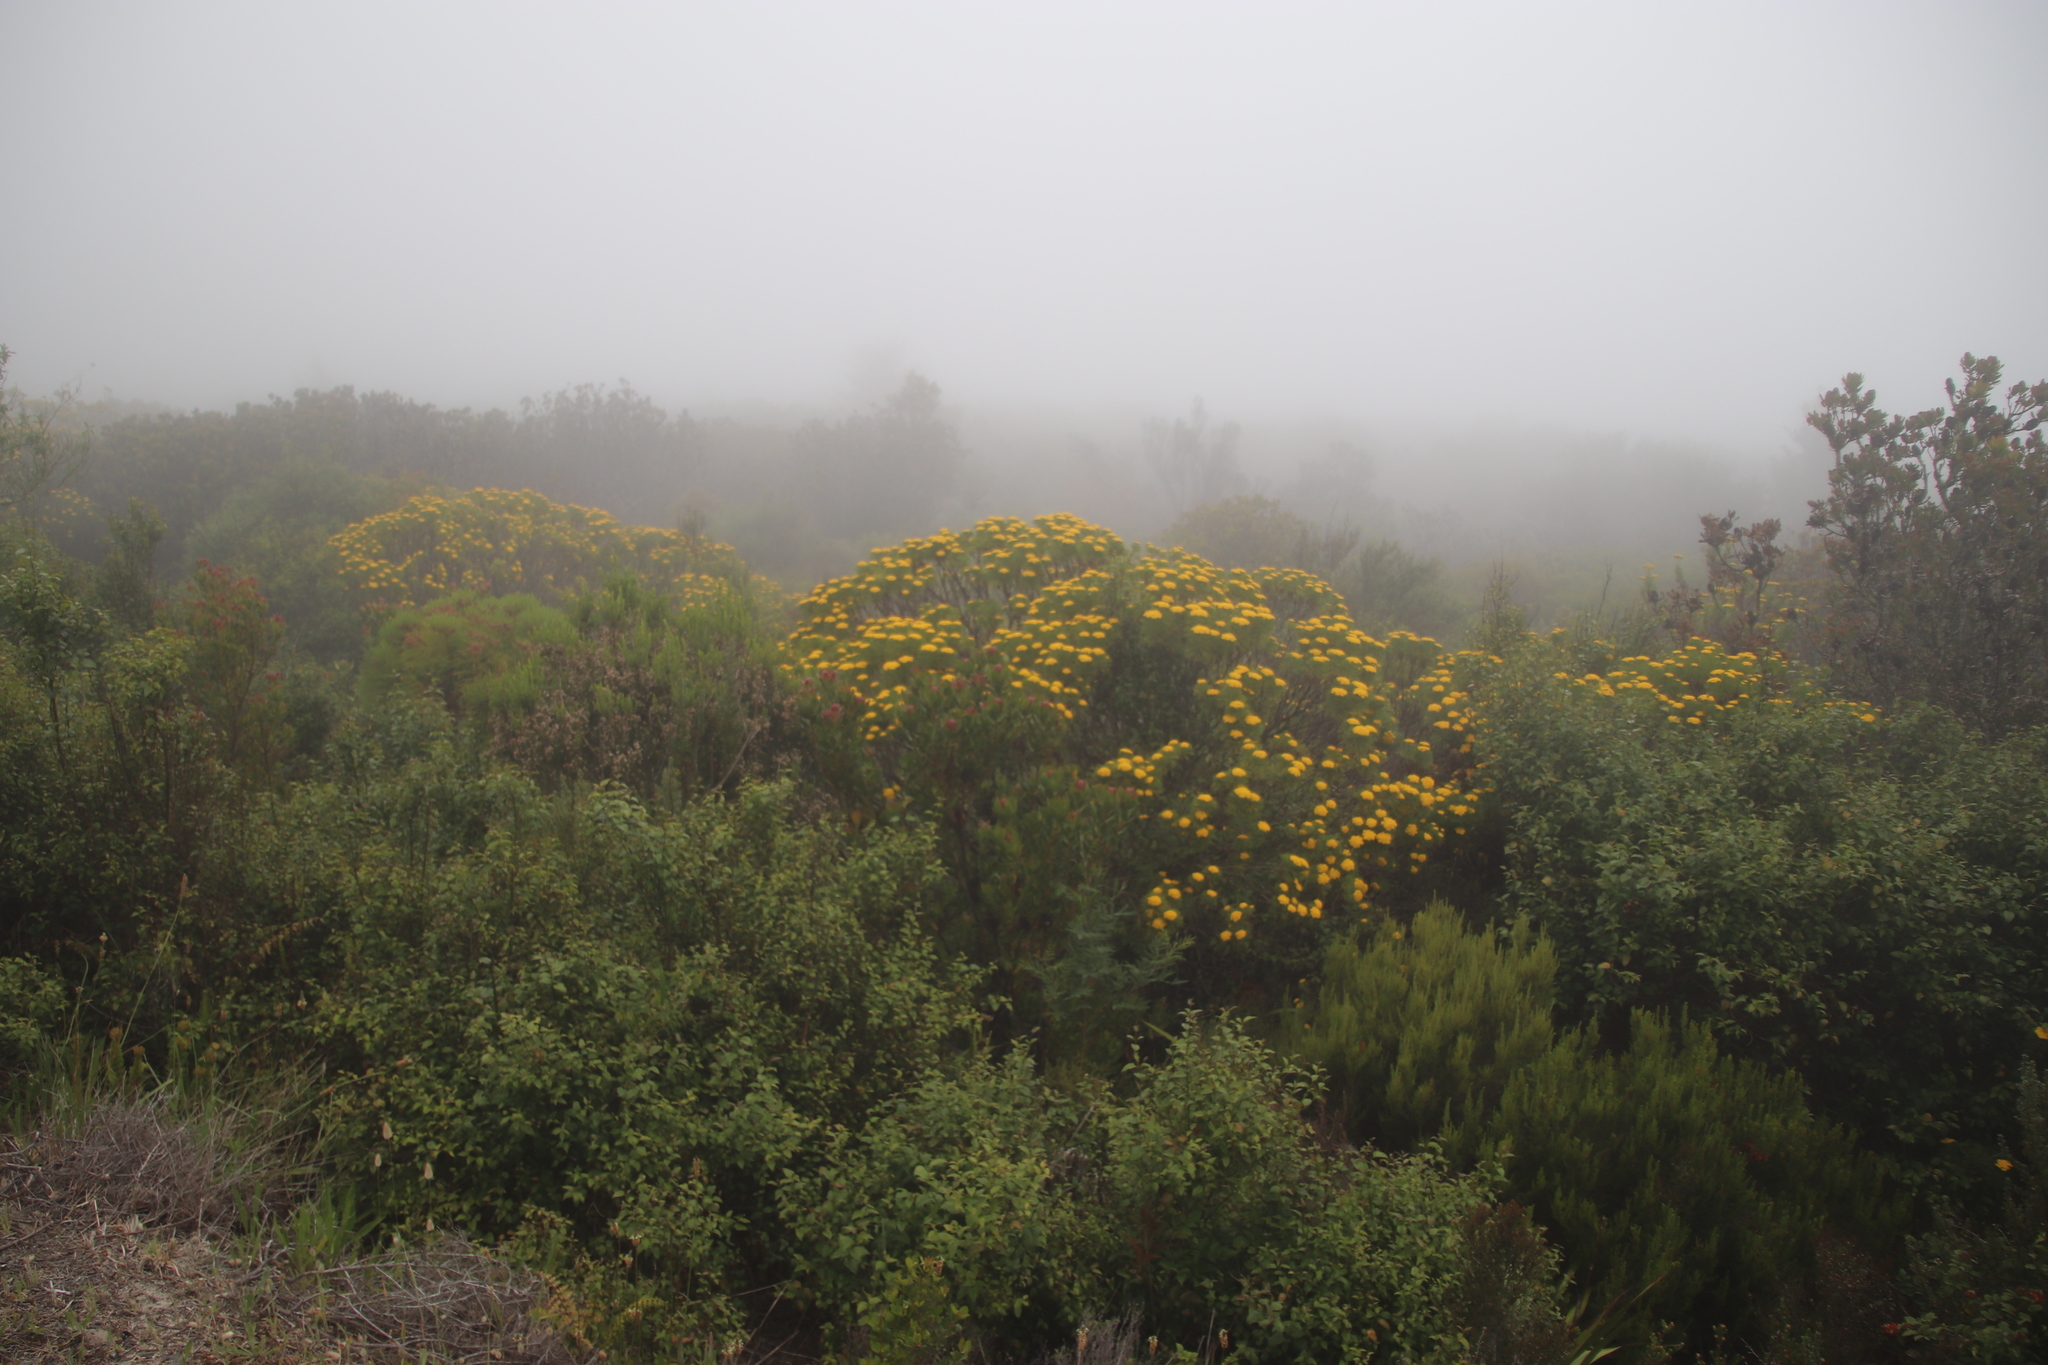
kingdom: Plantae
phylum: Tracheophyta
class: Magnoliopsida
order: Asterales
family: Asteraceae
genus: Hymenolepis
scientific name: Hymenolepis crithmifolia
